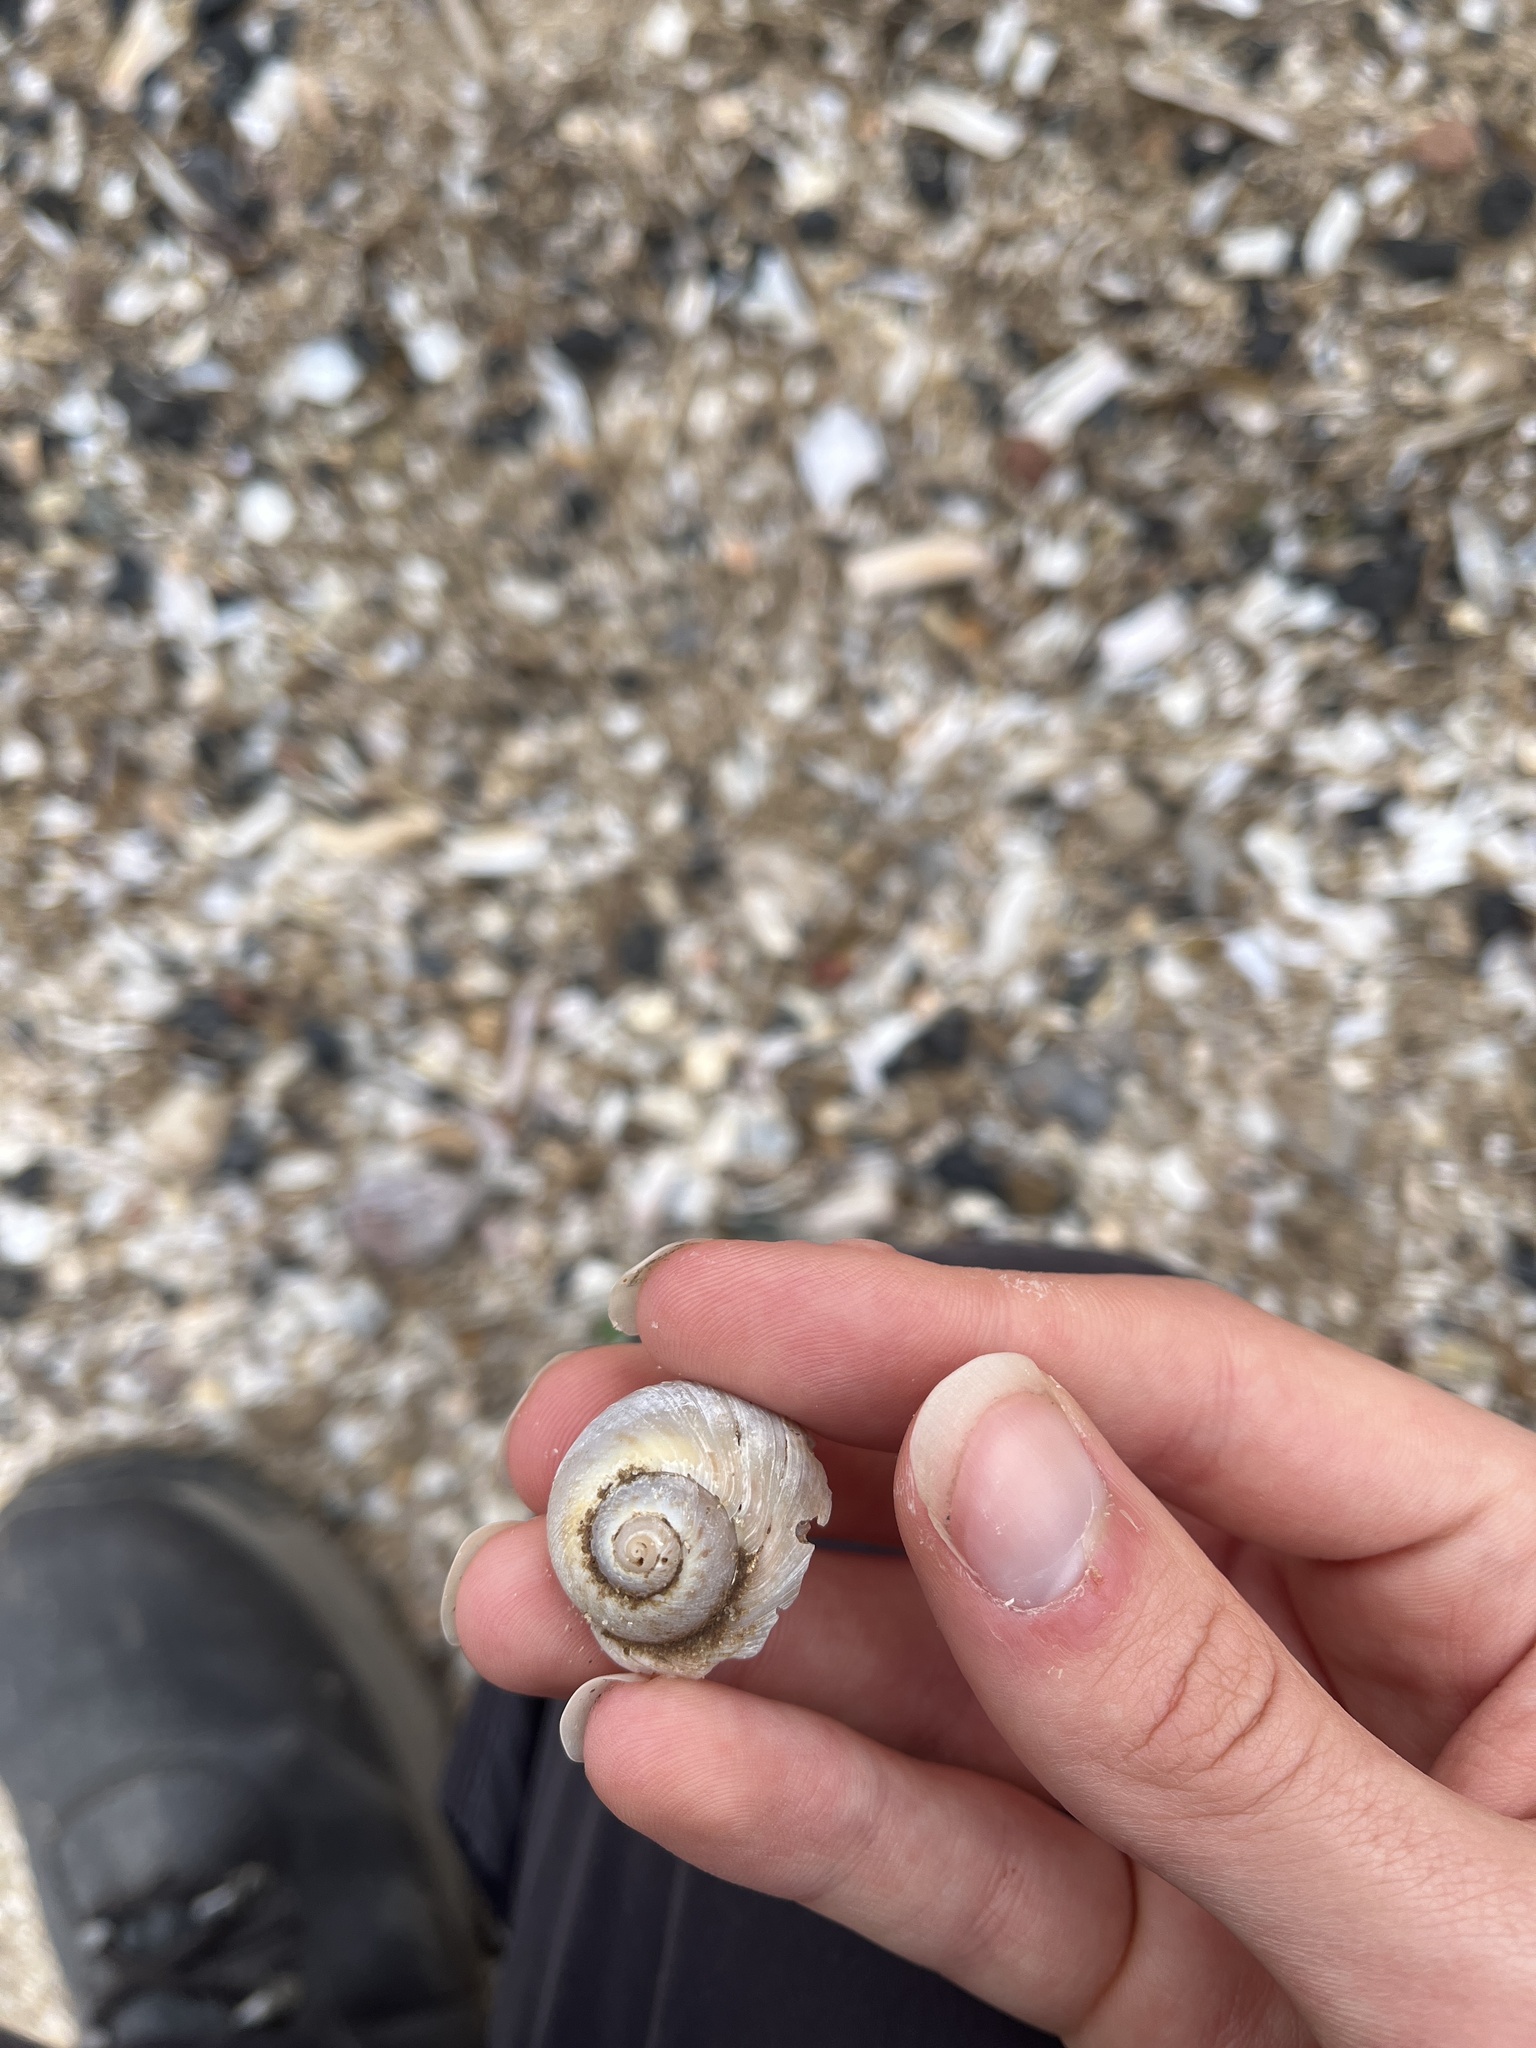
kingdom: Animalia
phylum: Mollusca
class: Gastropoda
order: Littorinimorpha
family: Naticidae
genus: Euspira
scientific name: Euspira catena
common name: Necklace shell
